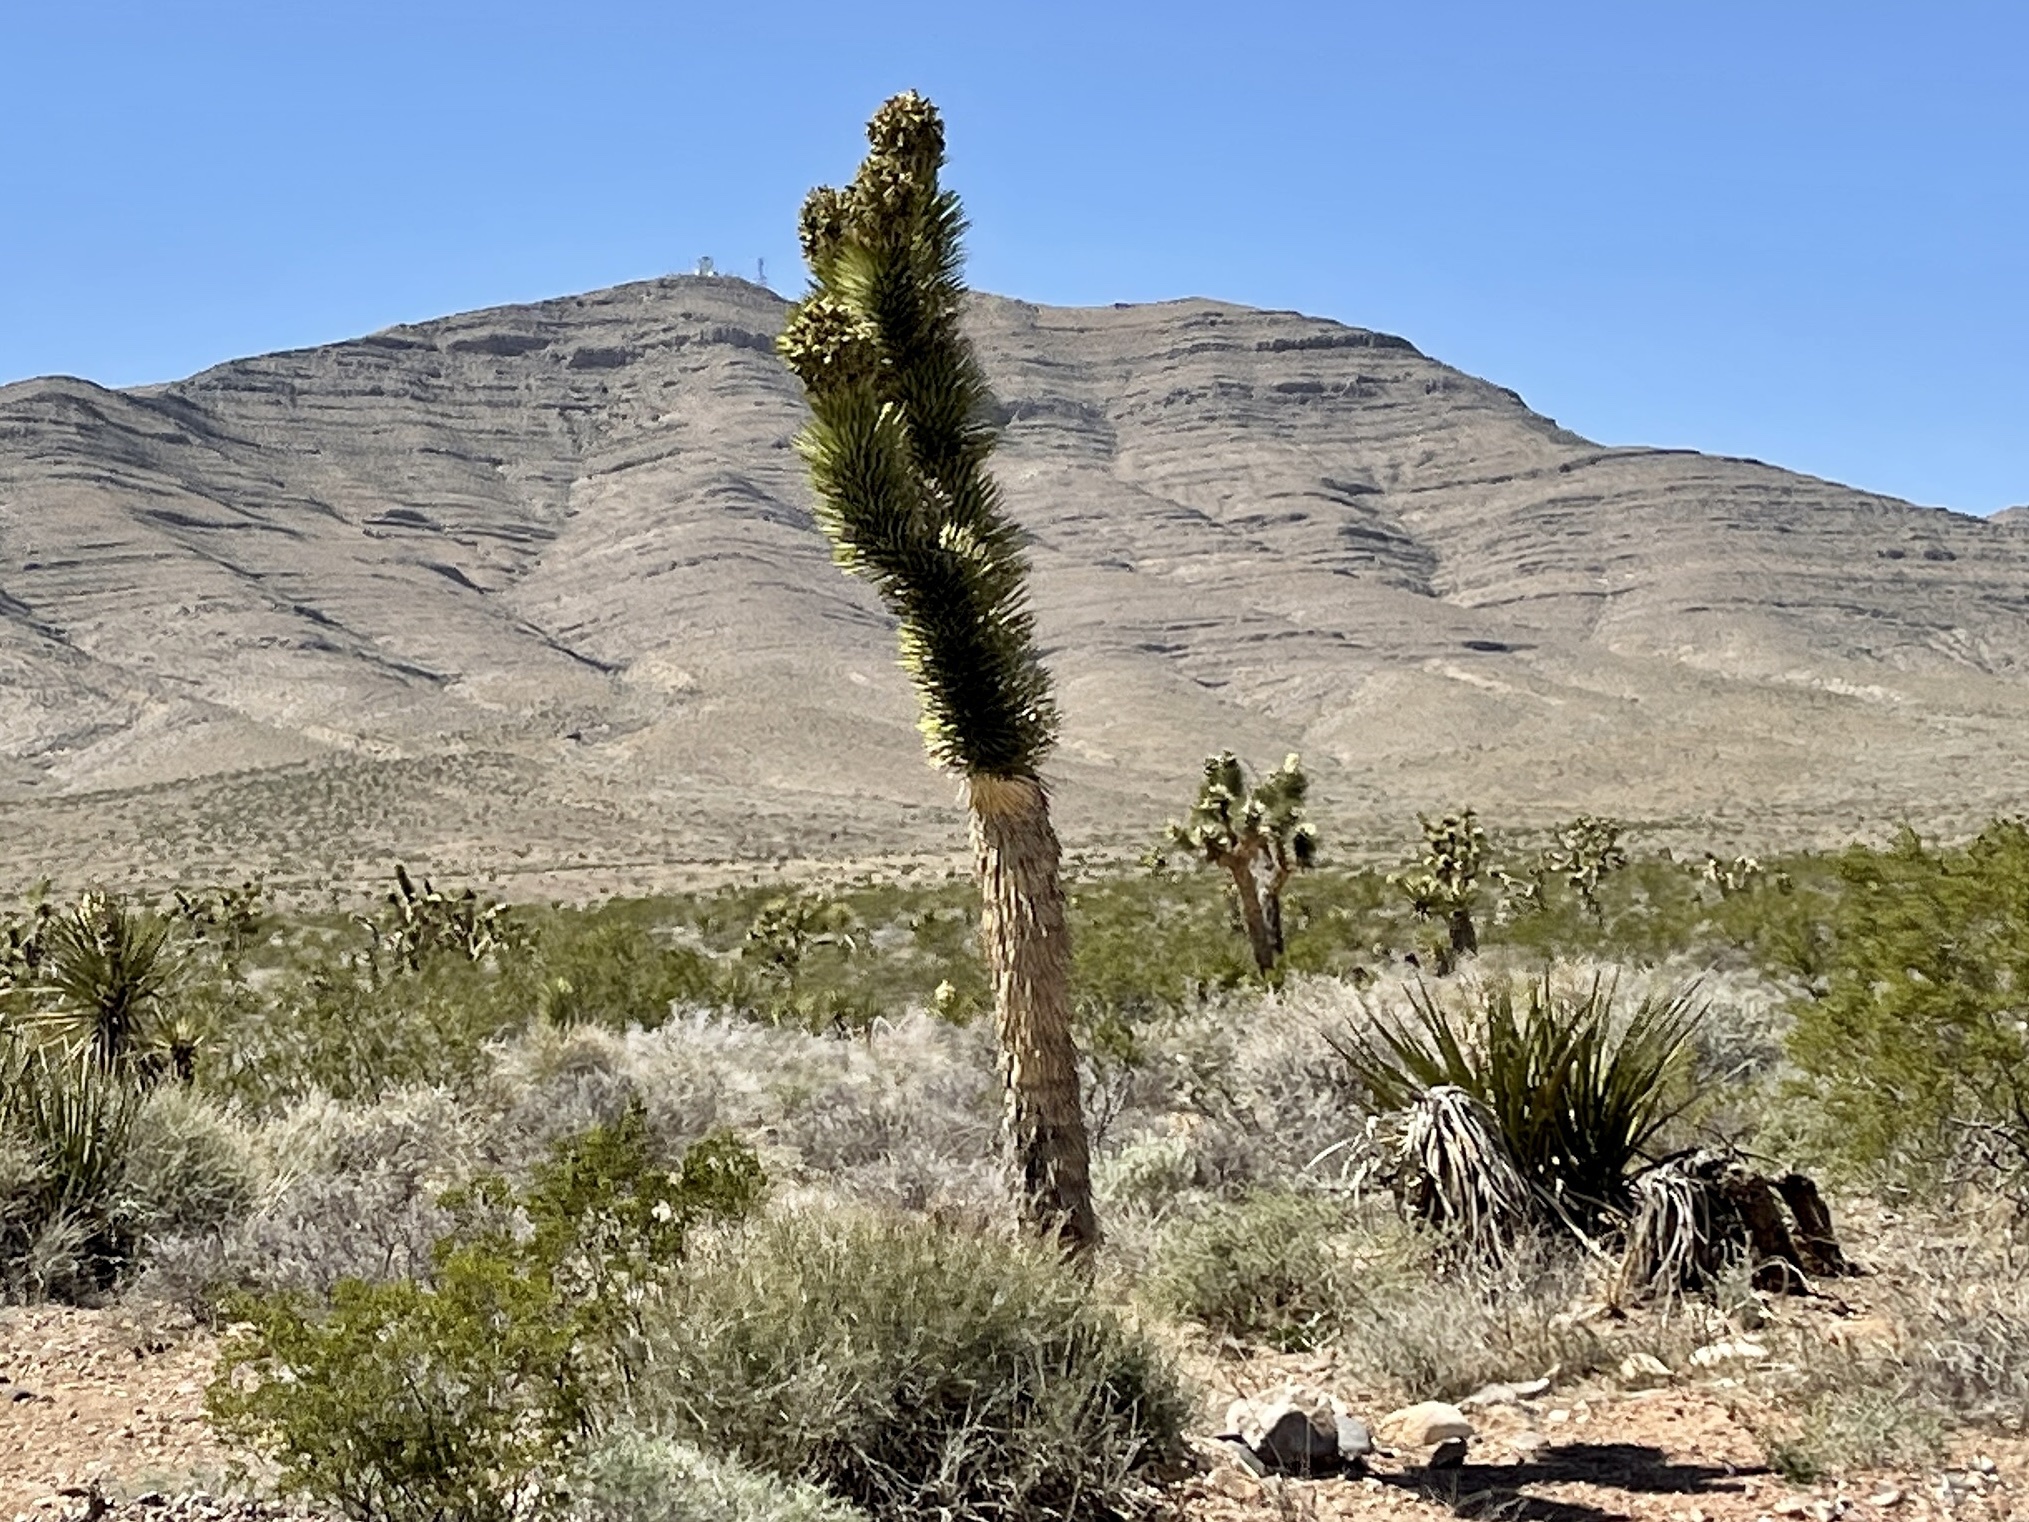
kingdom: Plantae
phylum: Tracheophyta
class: Liliopsida
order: Asparagales
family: Asparagaceae
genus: Yucca
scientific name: Yucca brevifolia
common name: Joshua tree
